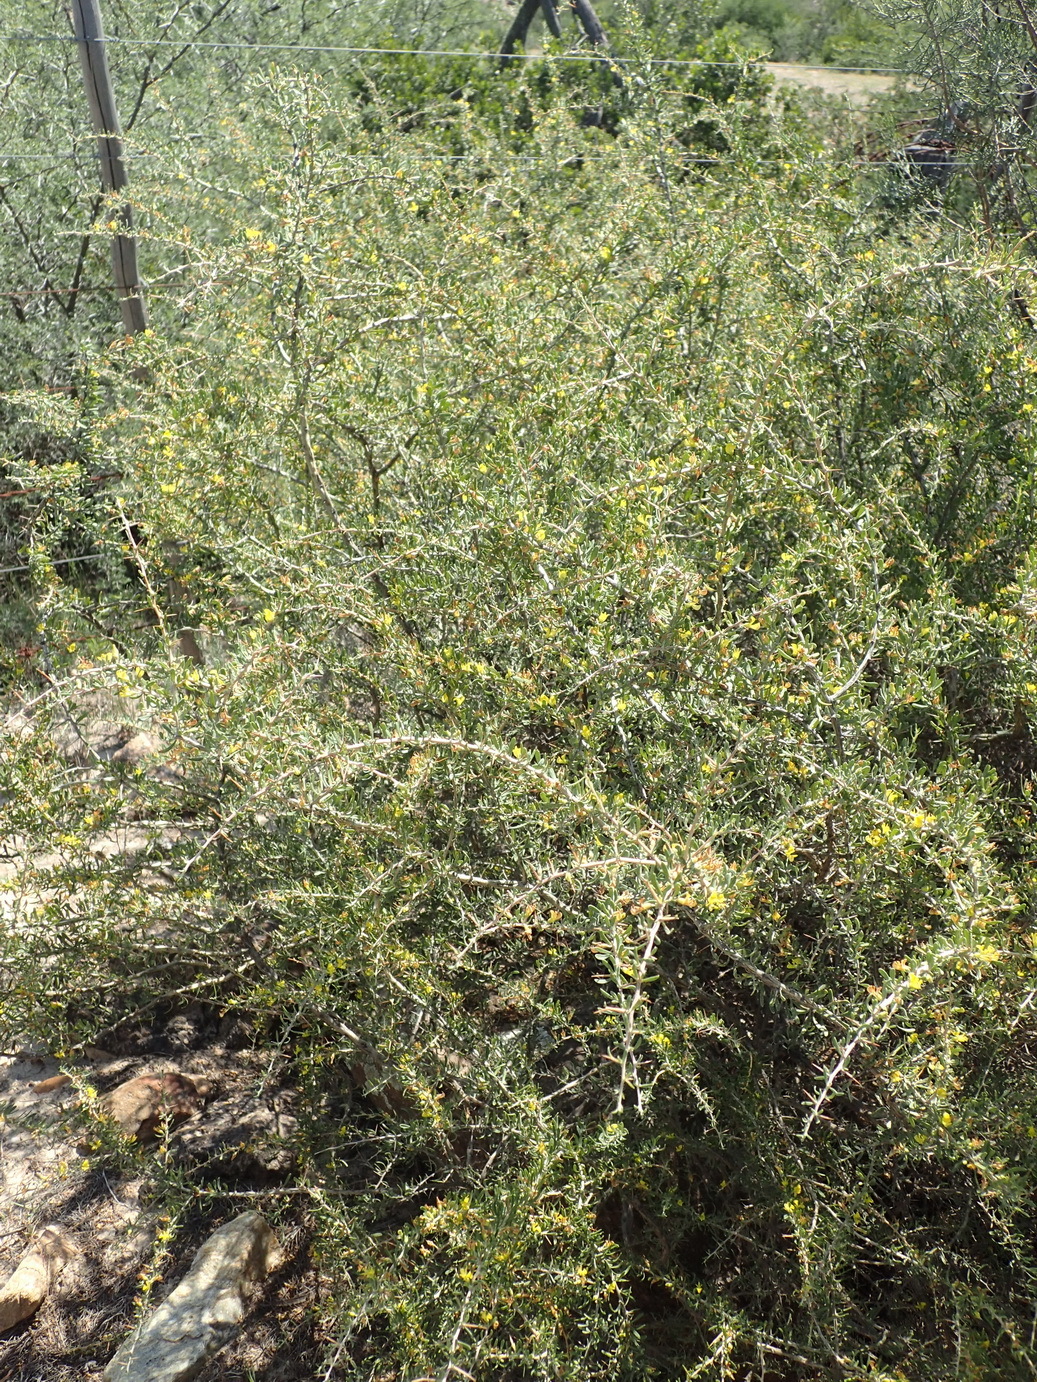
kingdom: Plantae
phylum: Tracheophyta
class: Magnoliopsida
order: Fabales
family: Fabaceae
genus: Aspalathus
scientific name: Aspalathus spinosa
